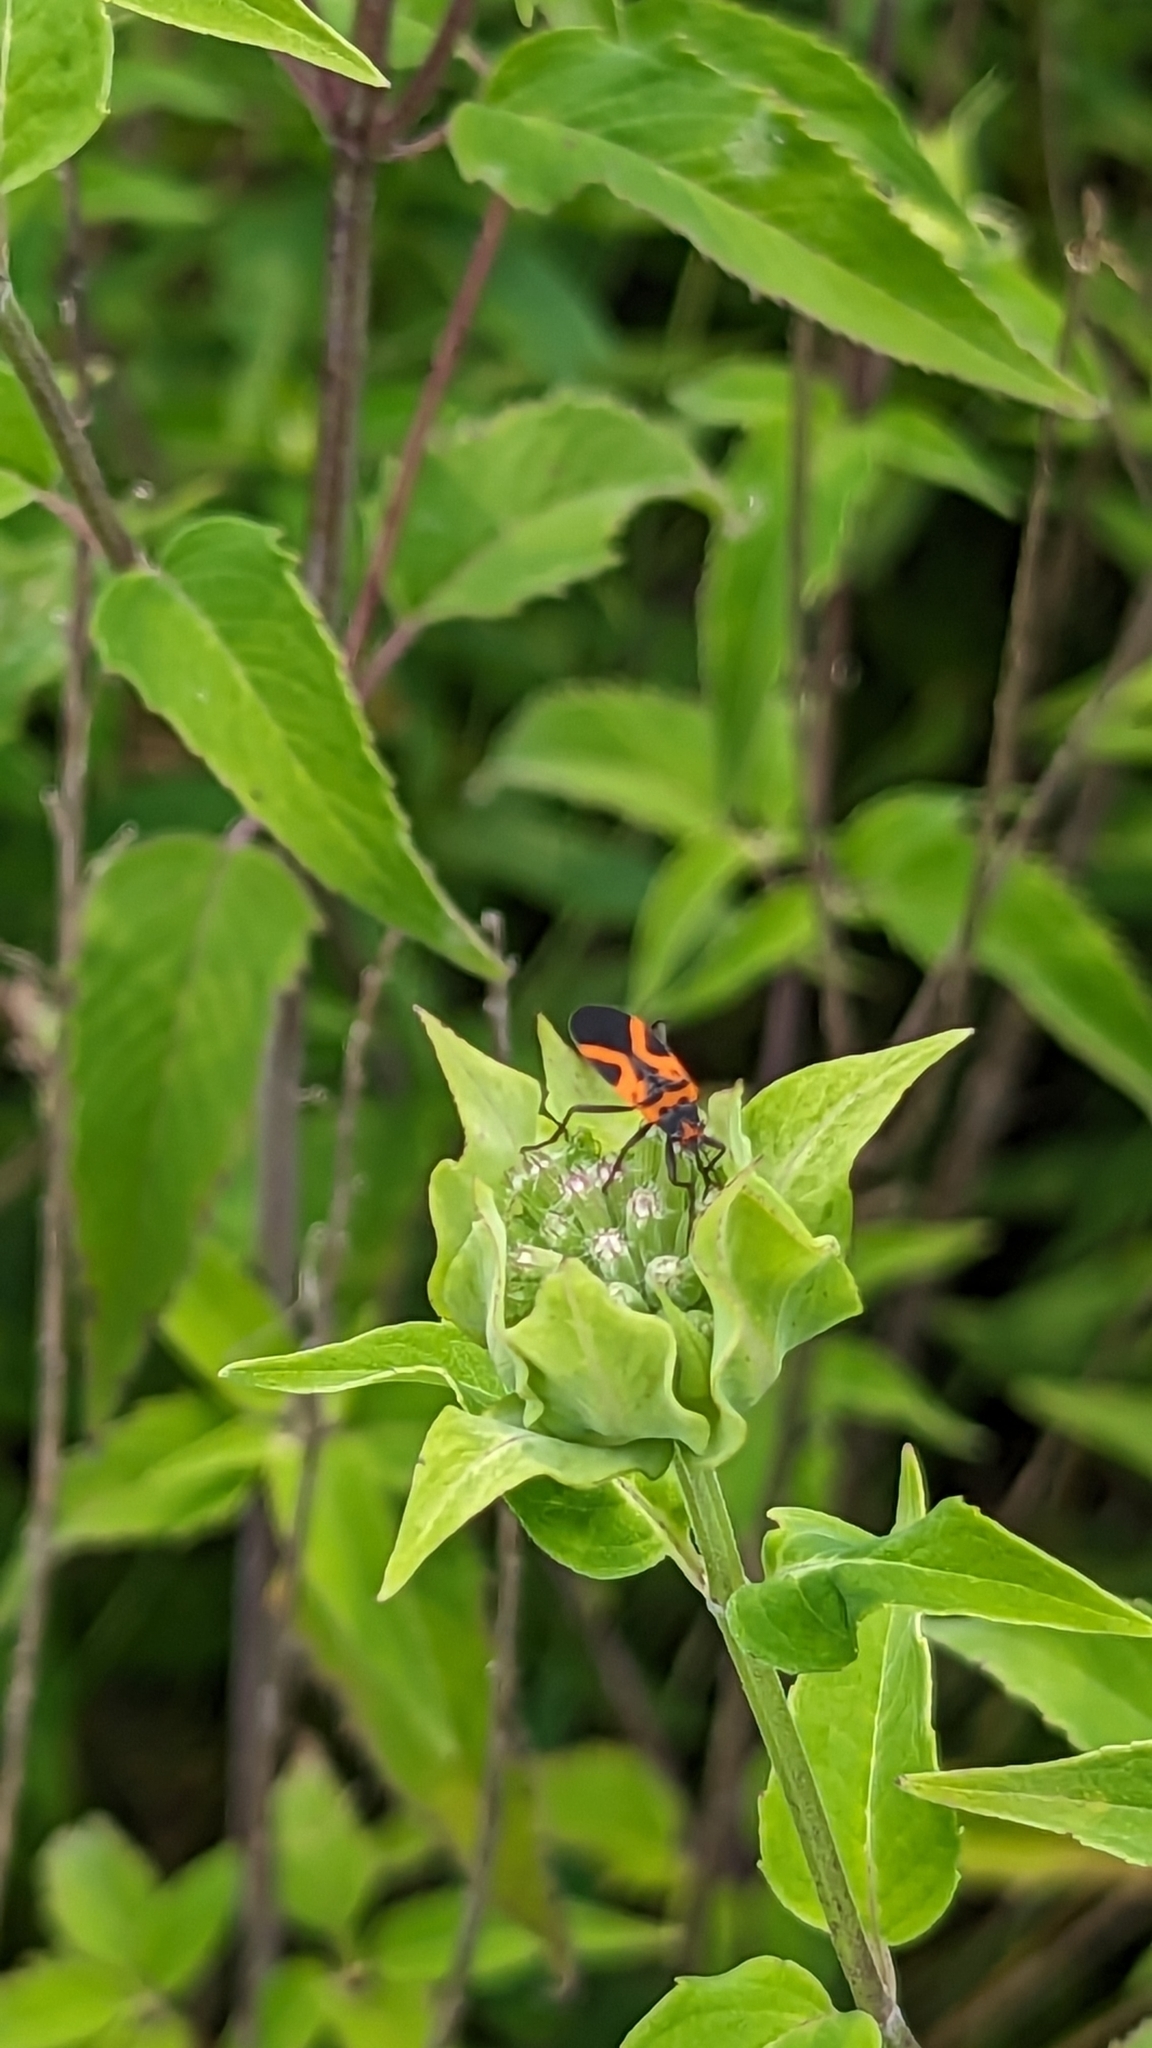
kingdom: Animalia
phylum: Arthropoda
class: Insecta
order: Hemiptera
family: Lygaeidae
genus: Lygaeus
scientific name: Lygaeus turcicus
